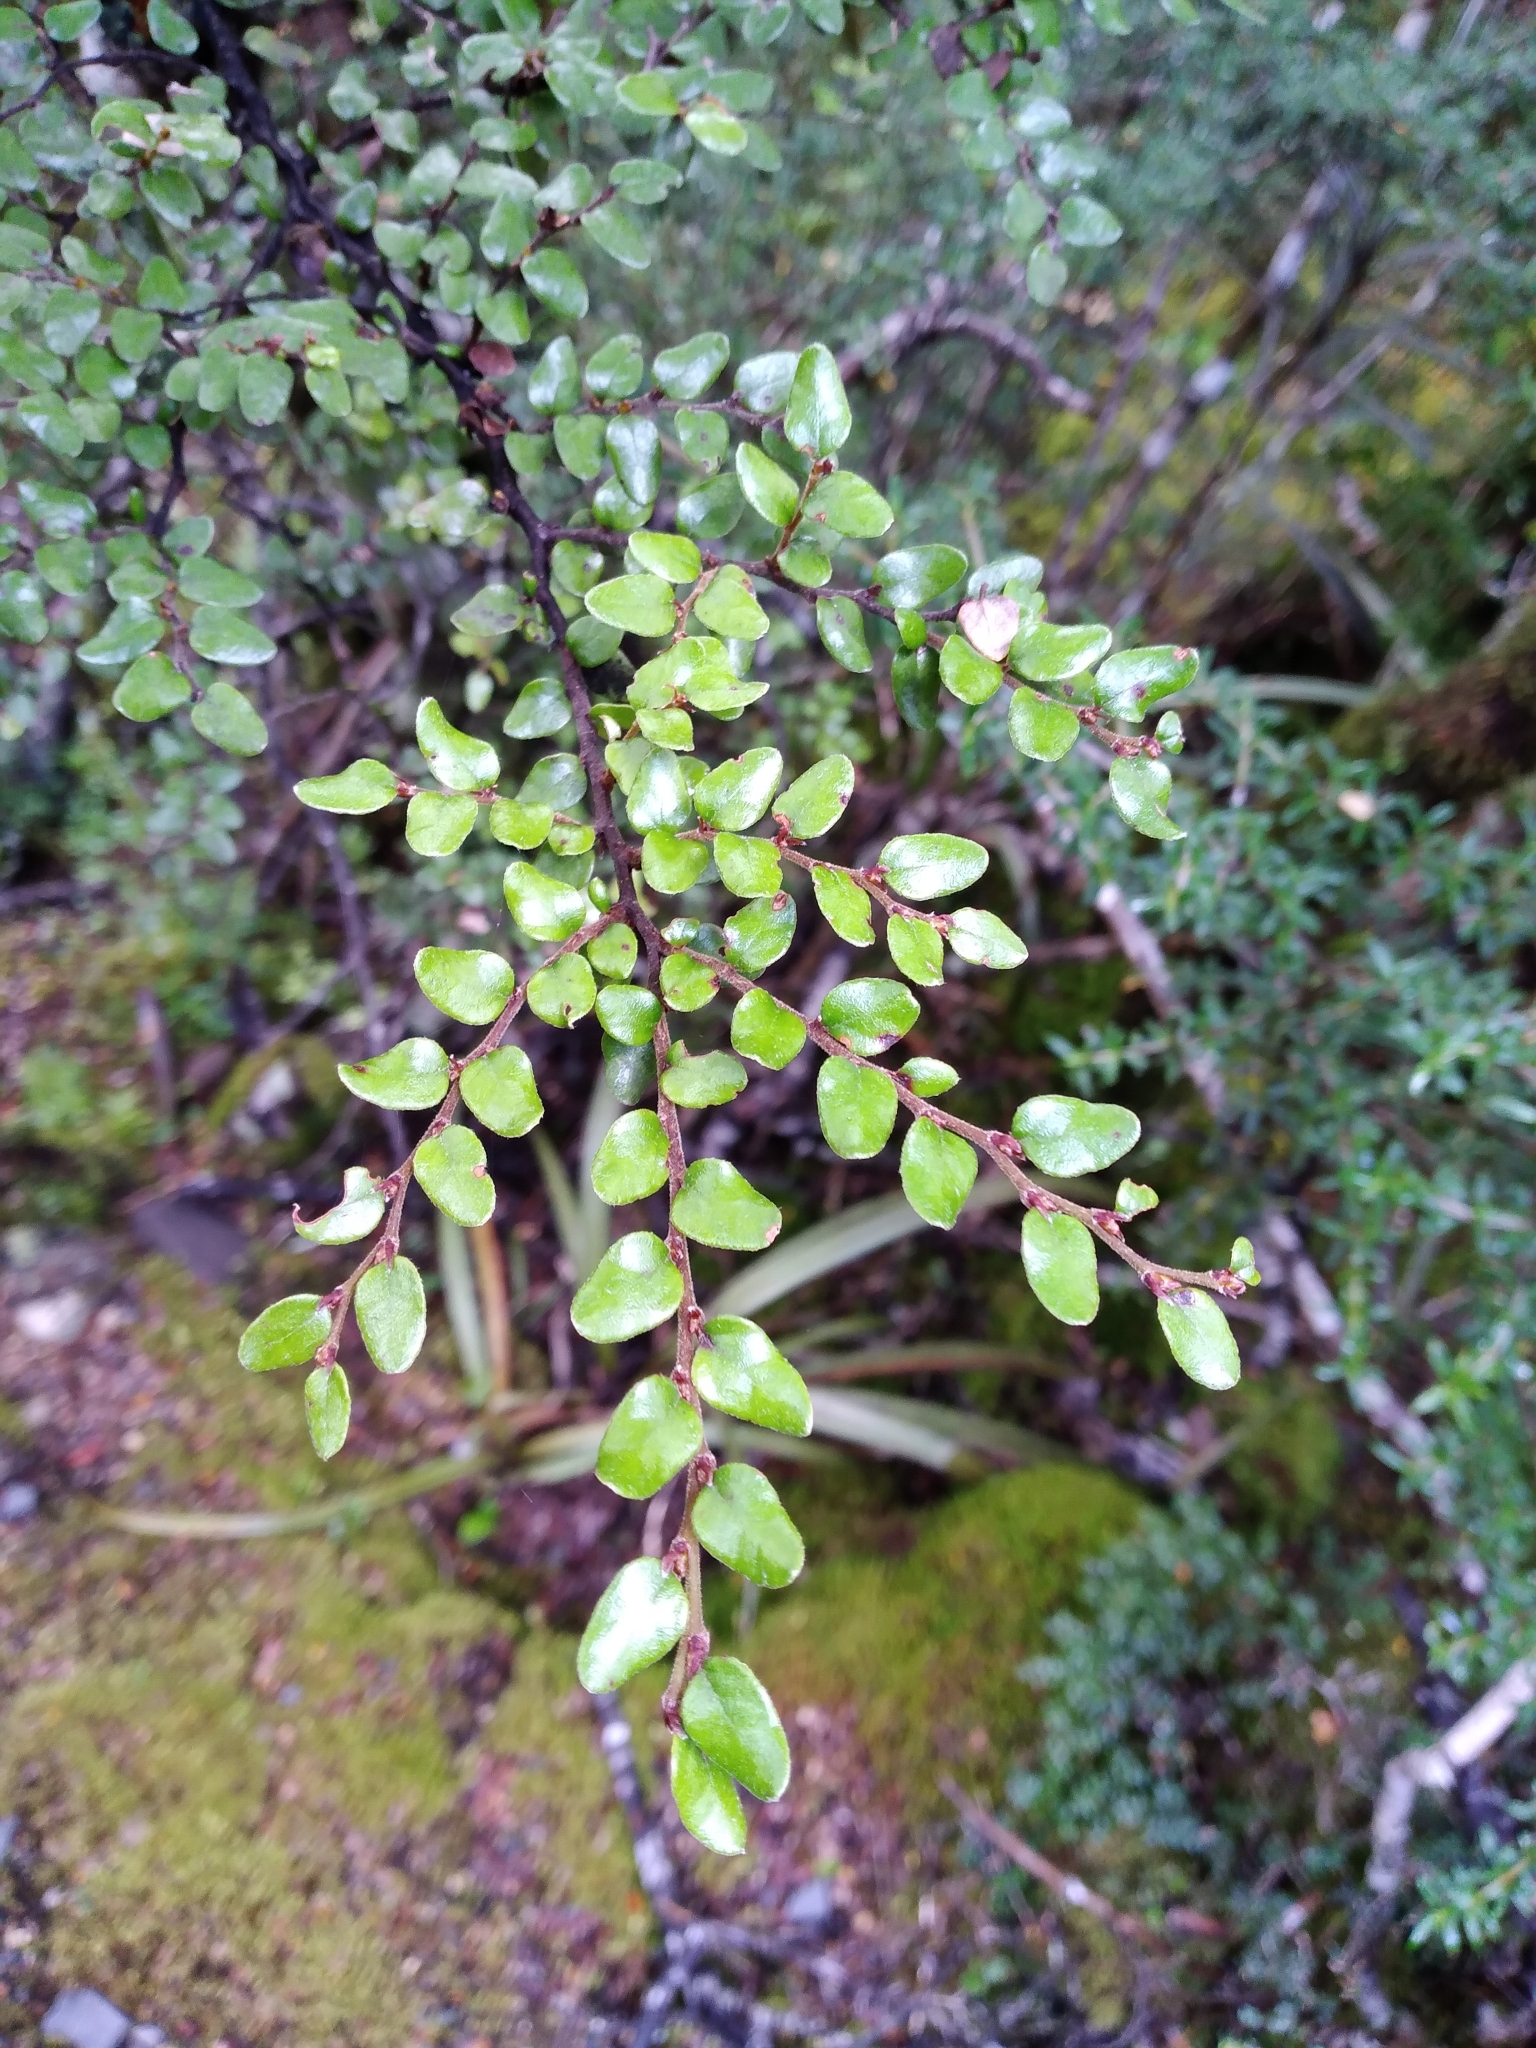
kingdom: Plantae
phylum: Tracheophyta
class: Magnoliopsida
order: Fagales
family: Nothofagaceae
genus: Nothofagus
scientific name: Nothofagus cliffortioides
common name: Mountain beech
